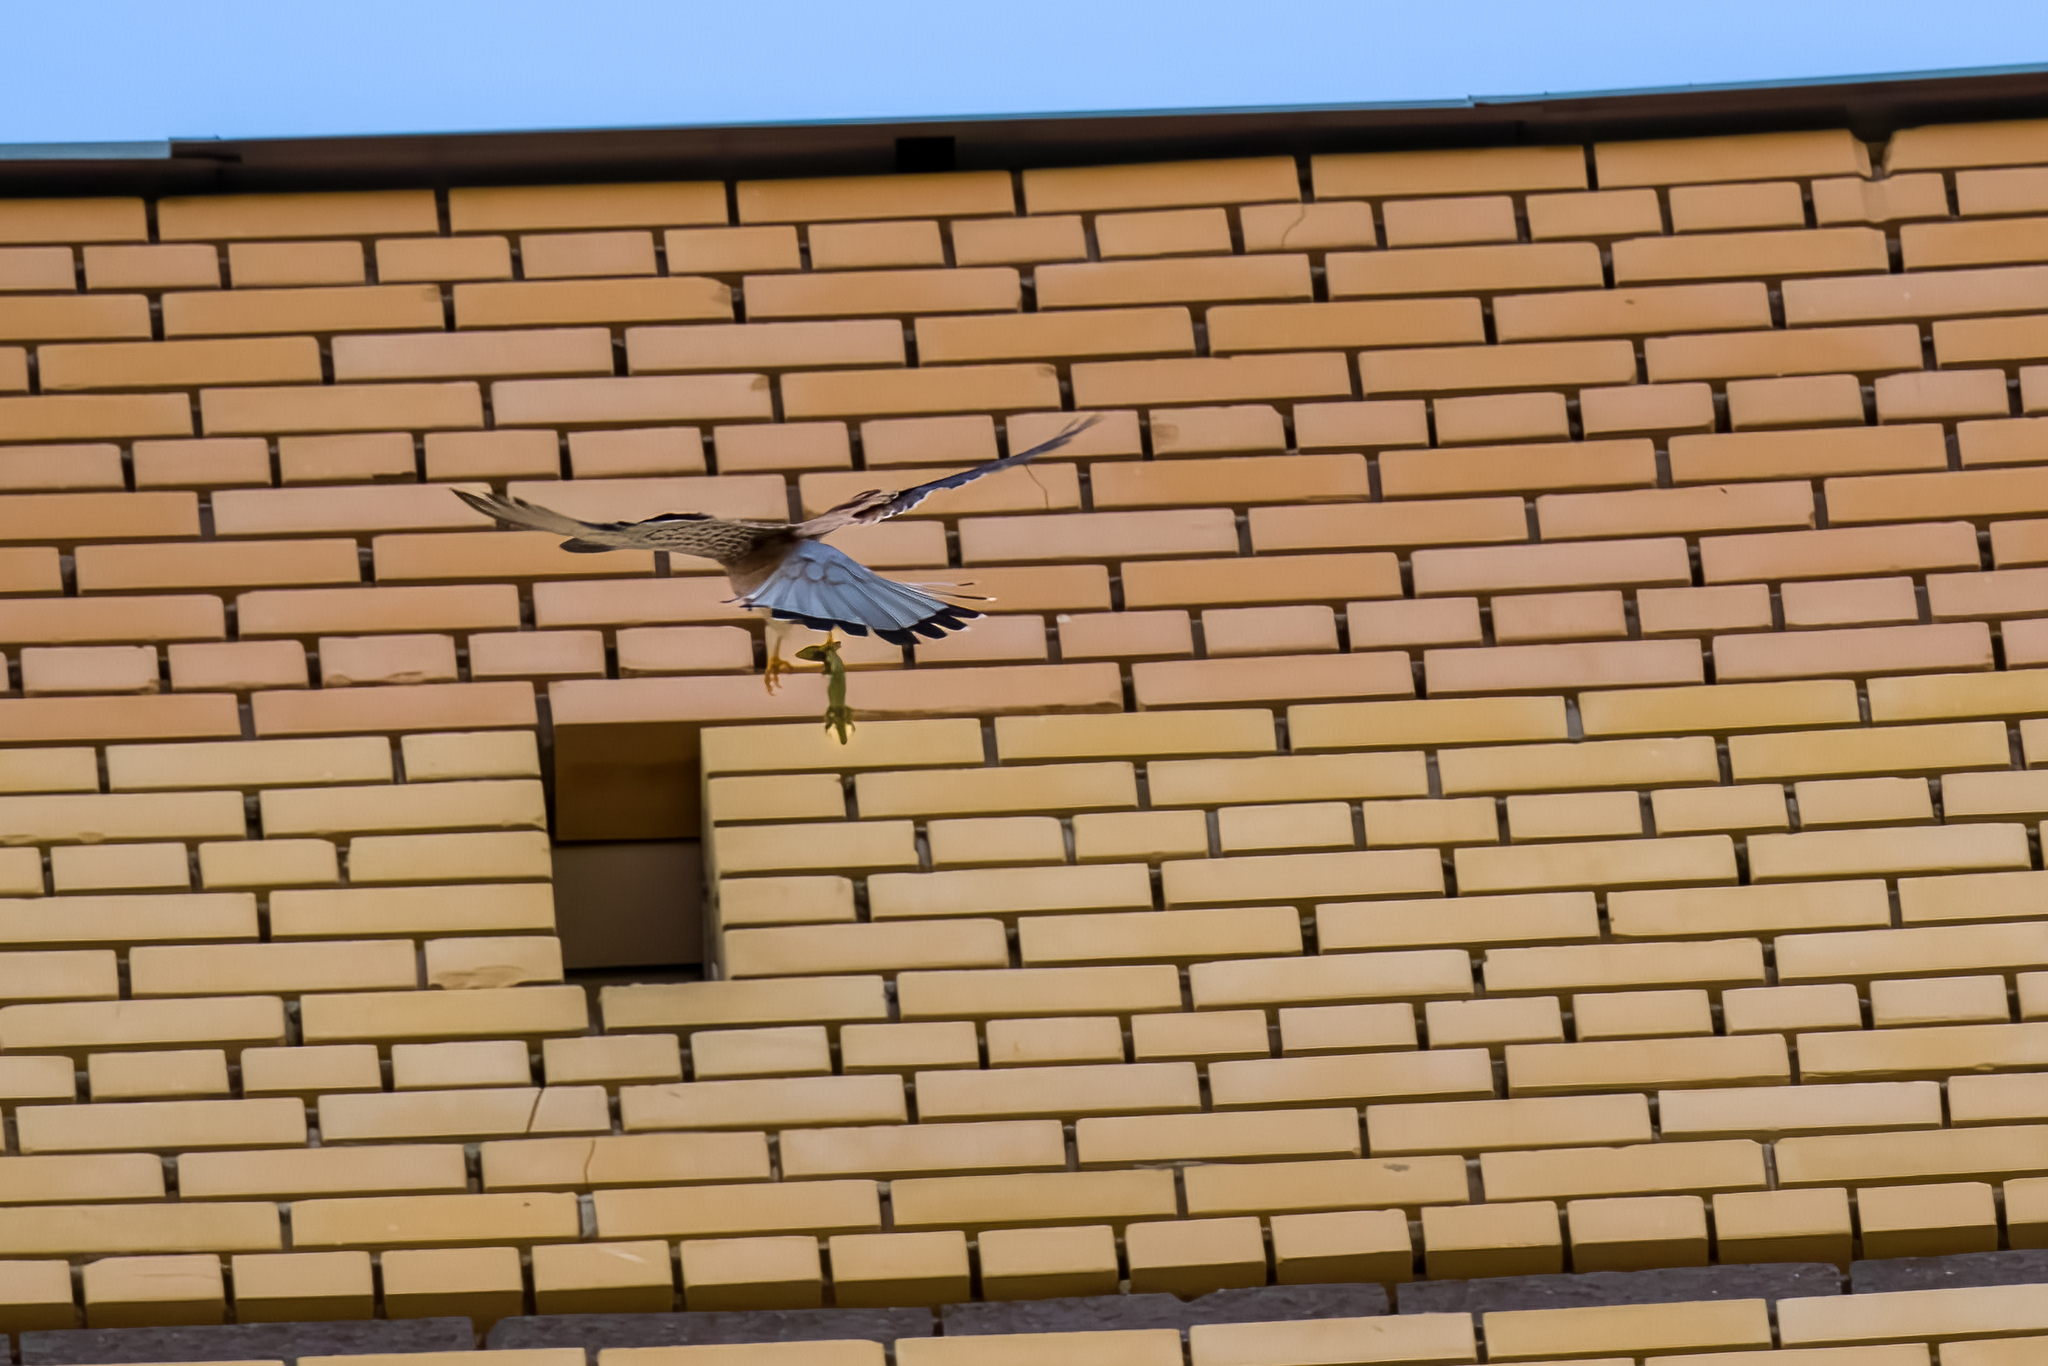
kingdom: Animalia
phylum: Chordata
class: Aves
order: Falconiformes
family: Falconidae
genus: Falco
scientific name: Falco tinnunculus
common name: Common kestrel
